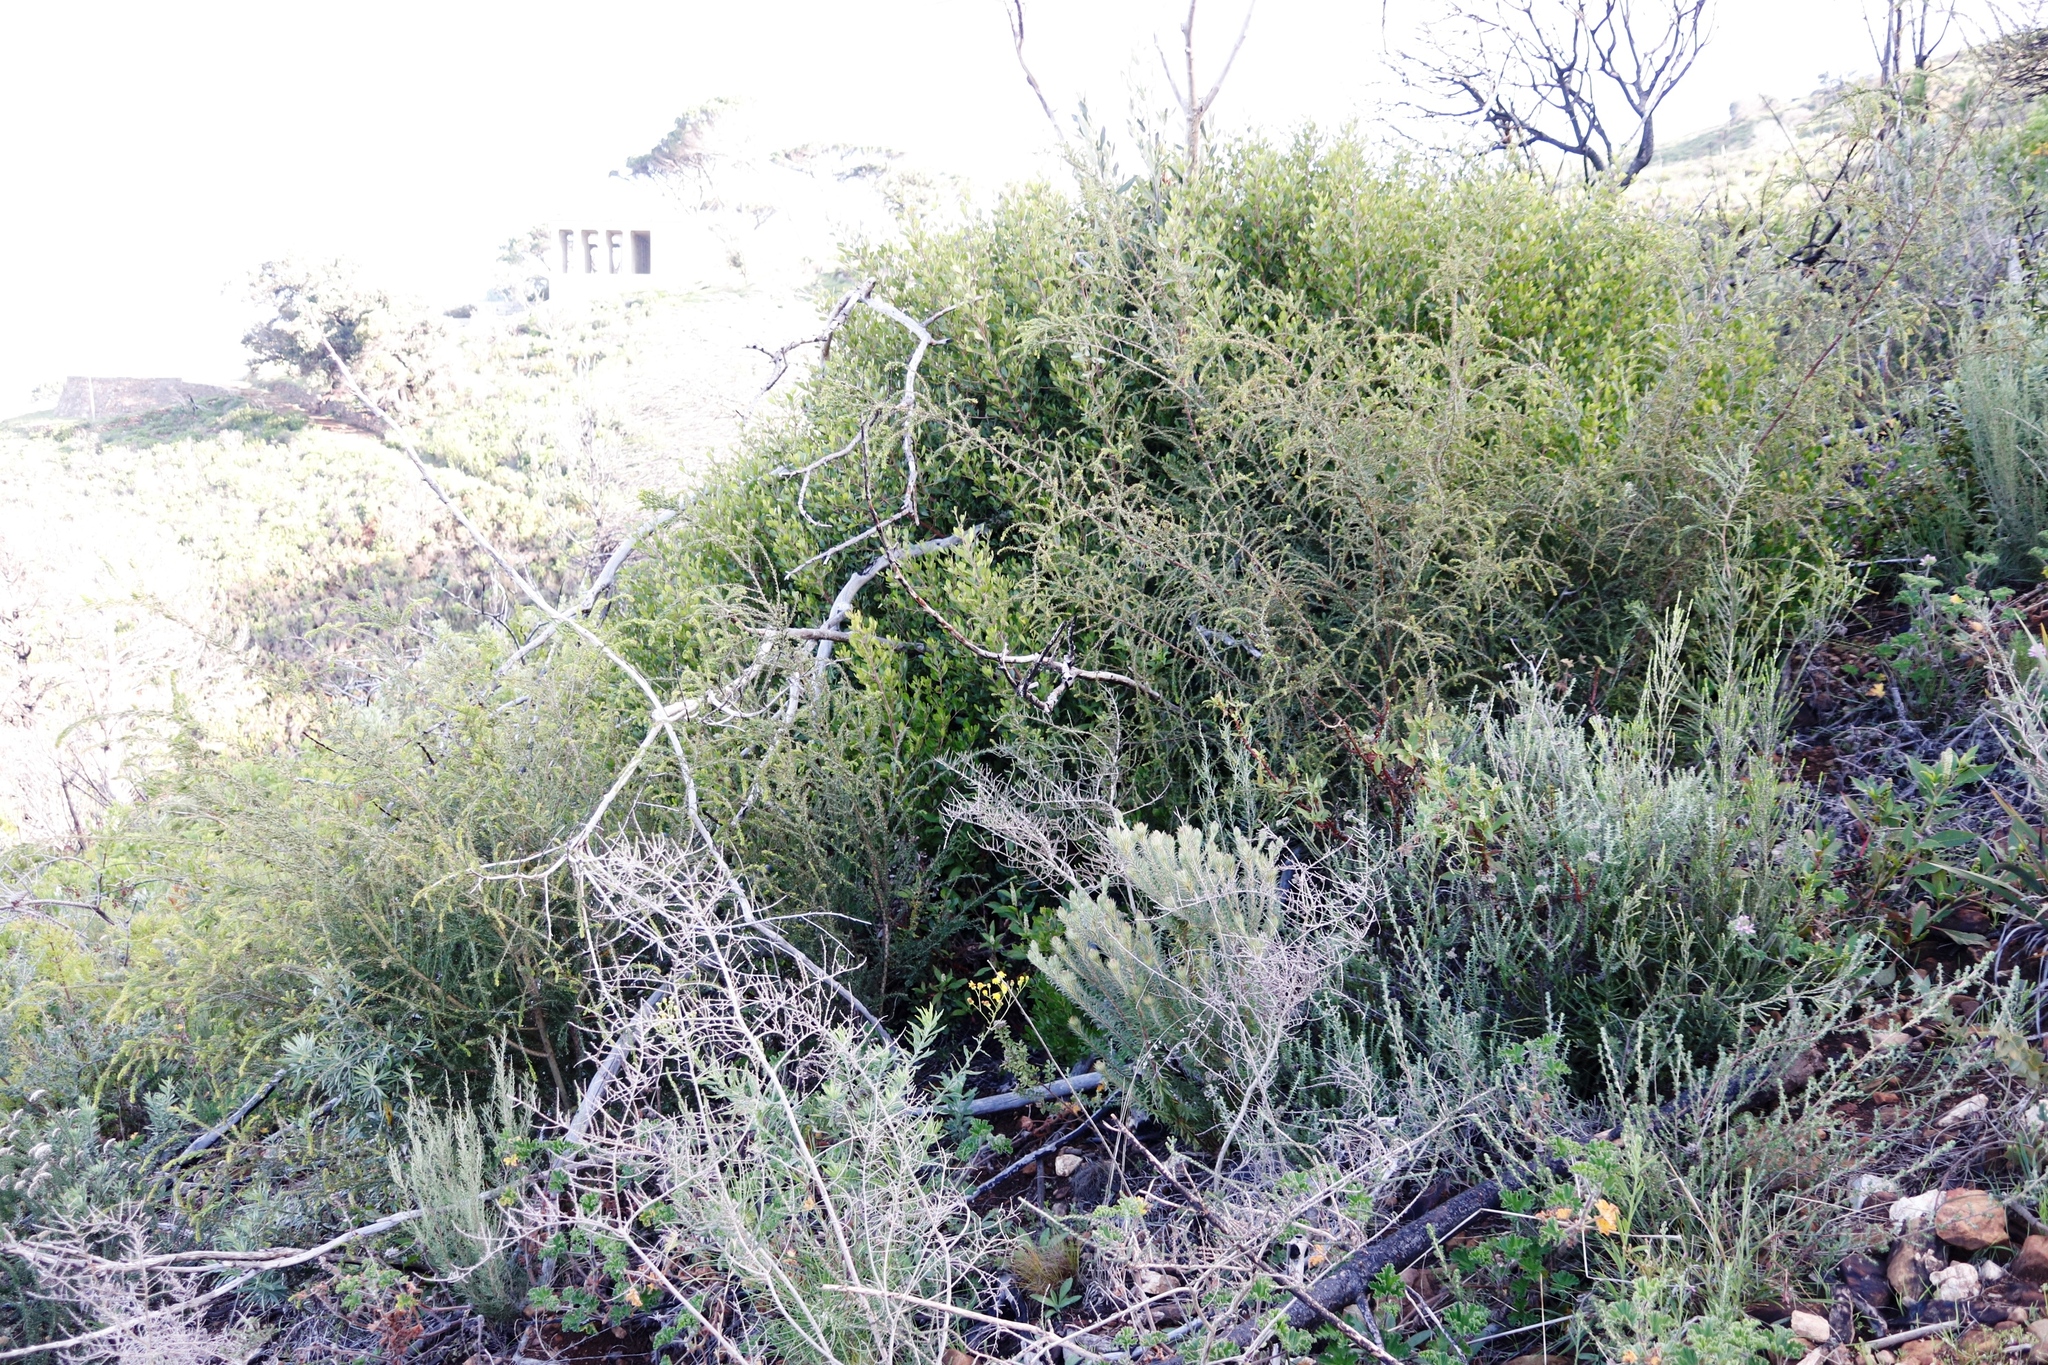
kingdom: Plantae
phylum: Tracheophyta
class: Magnoliopsida
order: Fabales
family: Fabaceae
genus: Acacia
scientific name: Acacia paradoxa
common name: Paradox acacia
